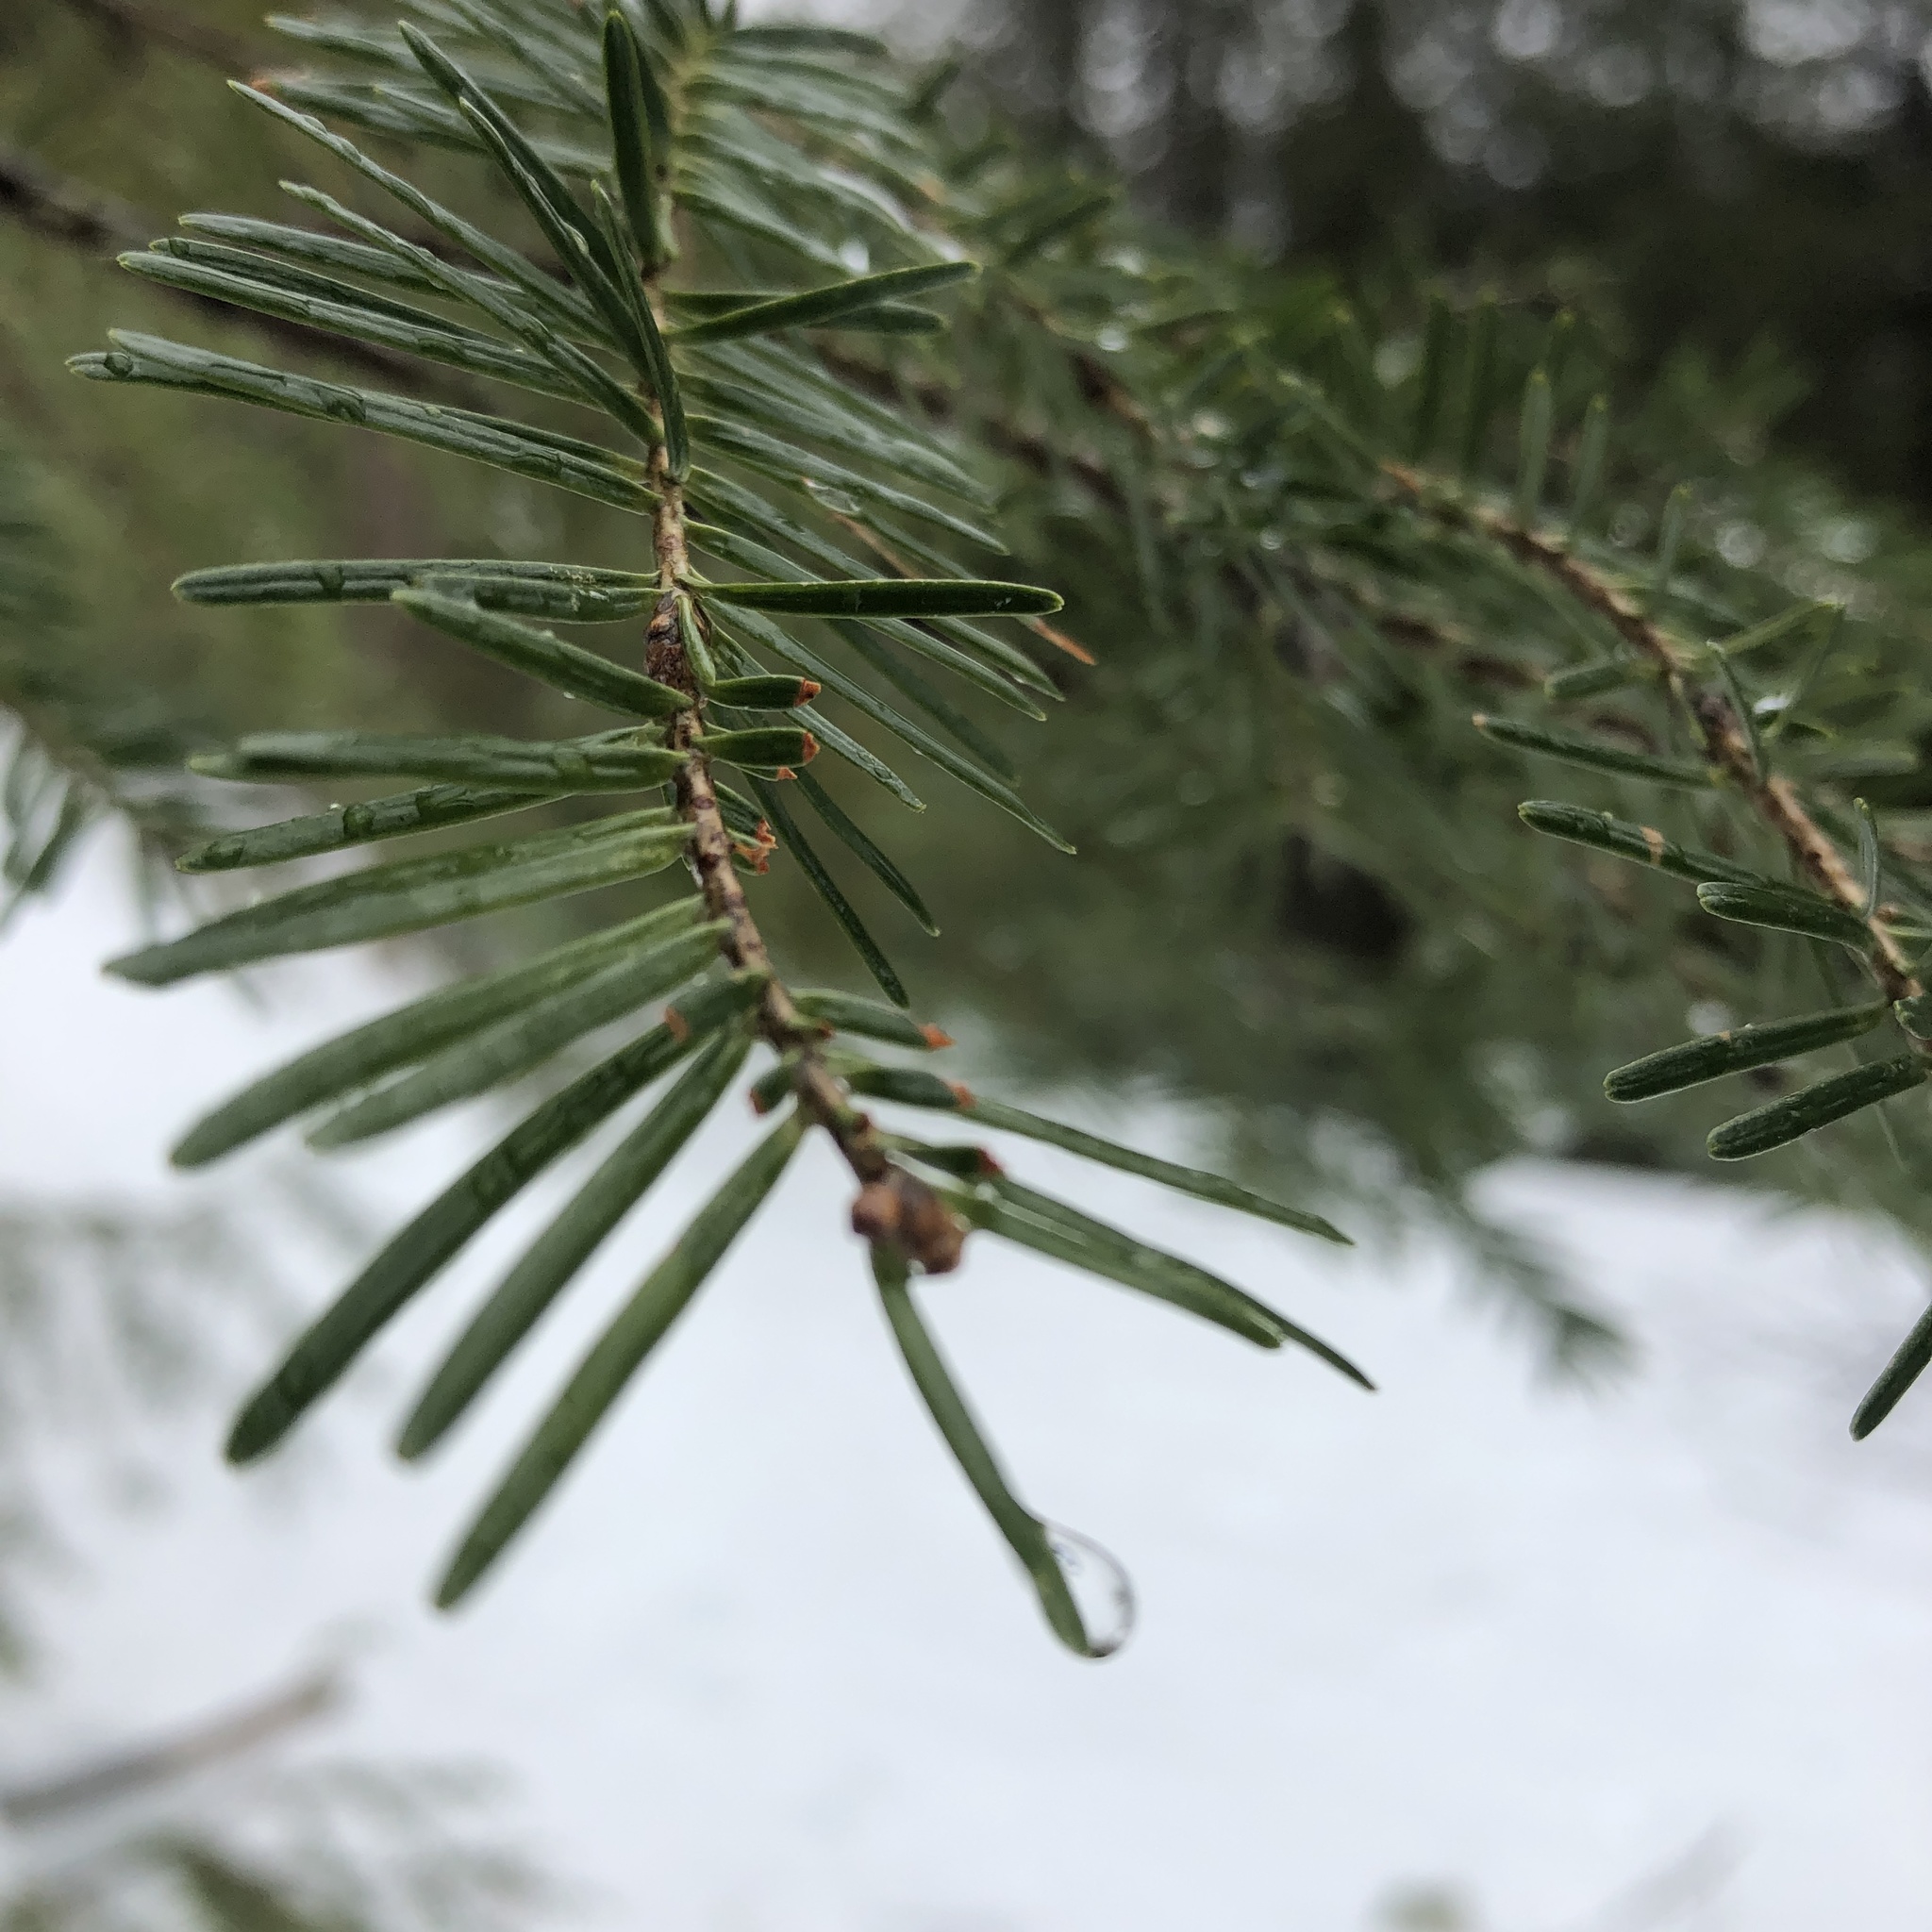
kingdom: Plantae
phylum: Tracheophyta
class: Pinopsida
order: Pinales
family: Pinaceae
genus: Abies
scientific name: Abies balsamea
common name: Balsam fir
